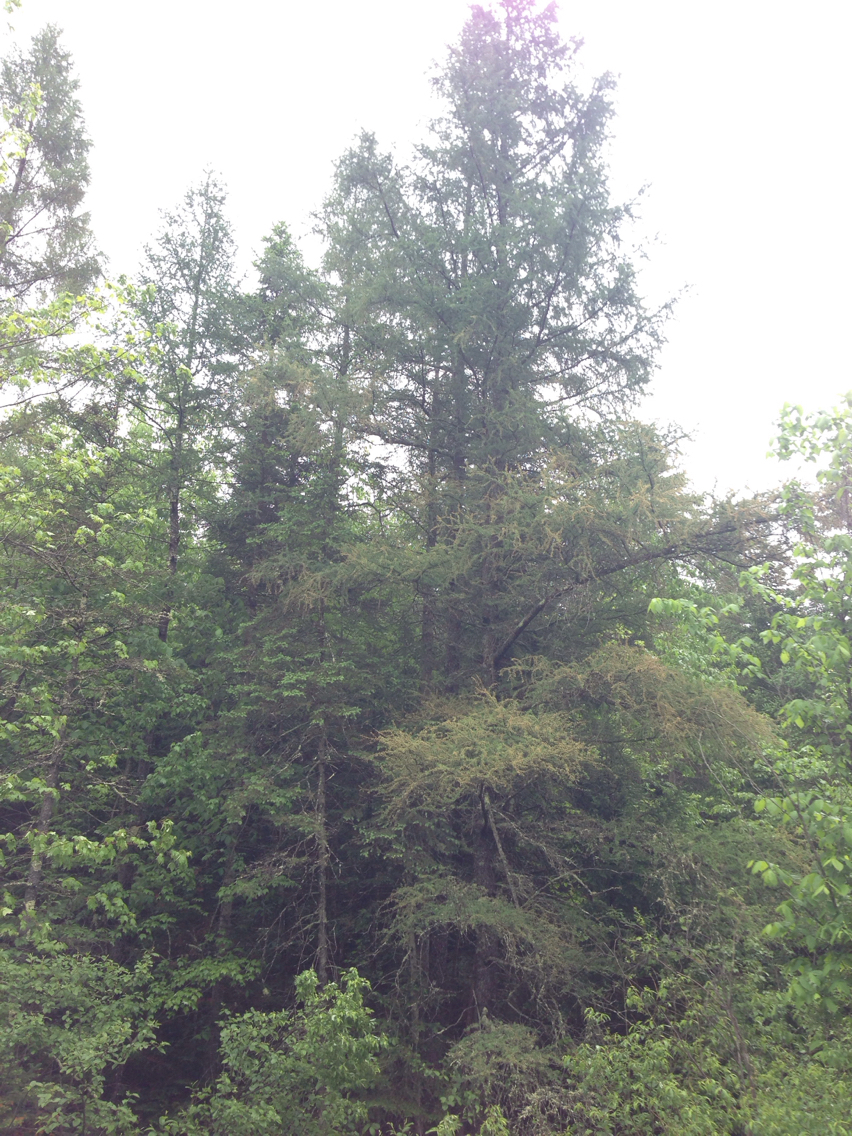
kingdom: Plantae
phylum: Tracheophyta
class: Pinopsida
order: Pinales
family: Pinaceae
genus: Larix
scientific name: Larix laricina
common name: American larch
